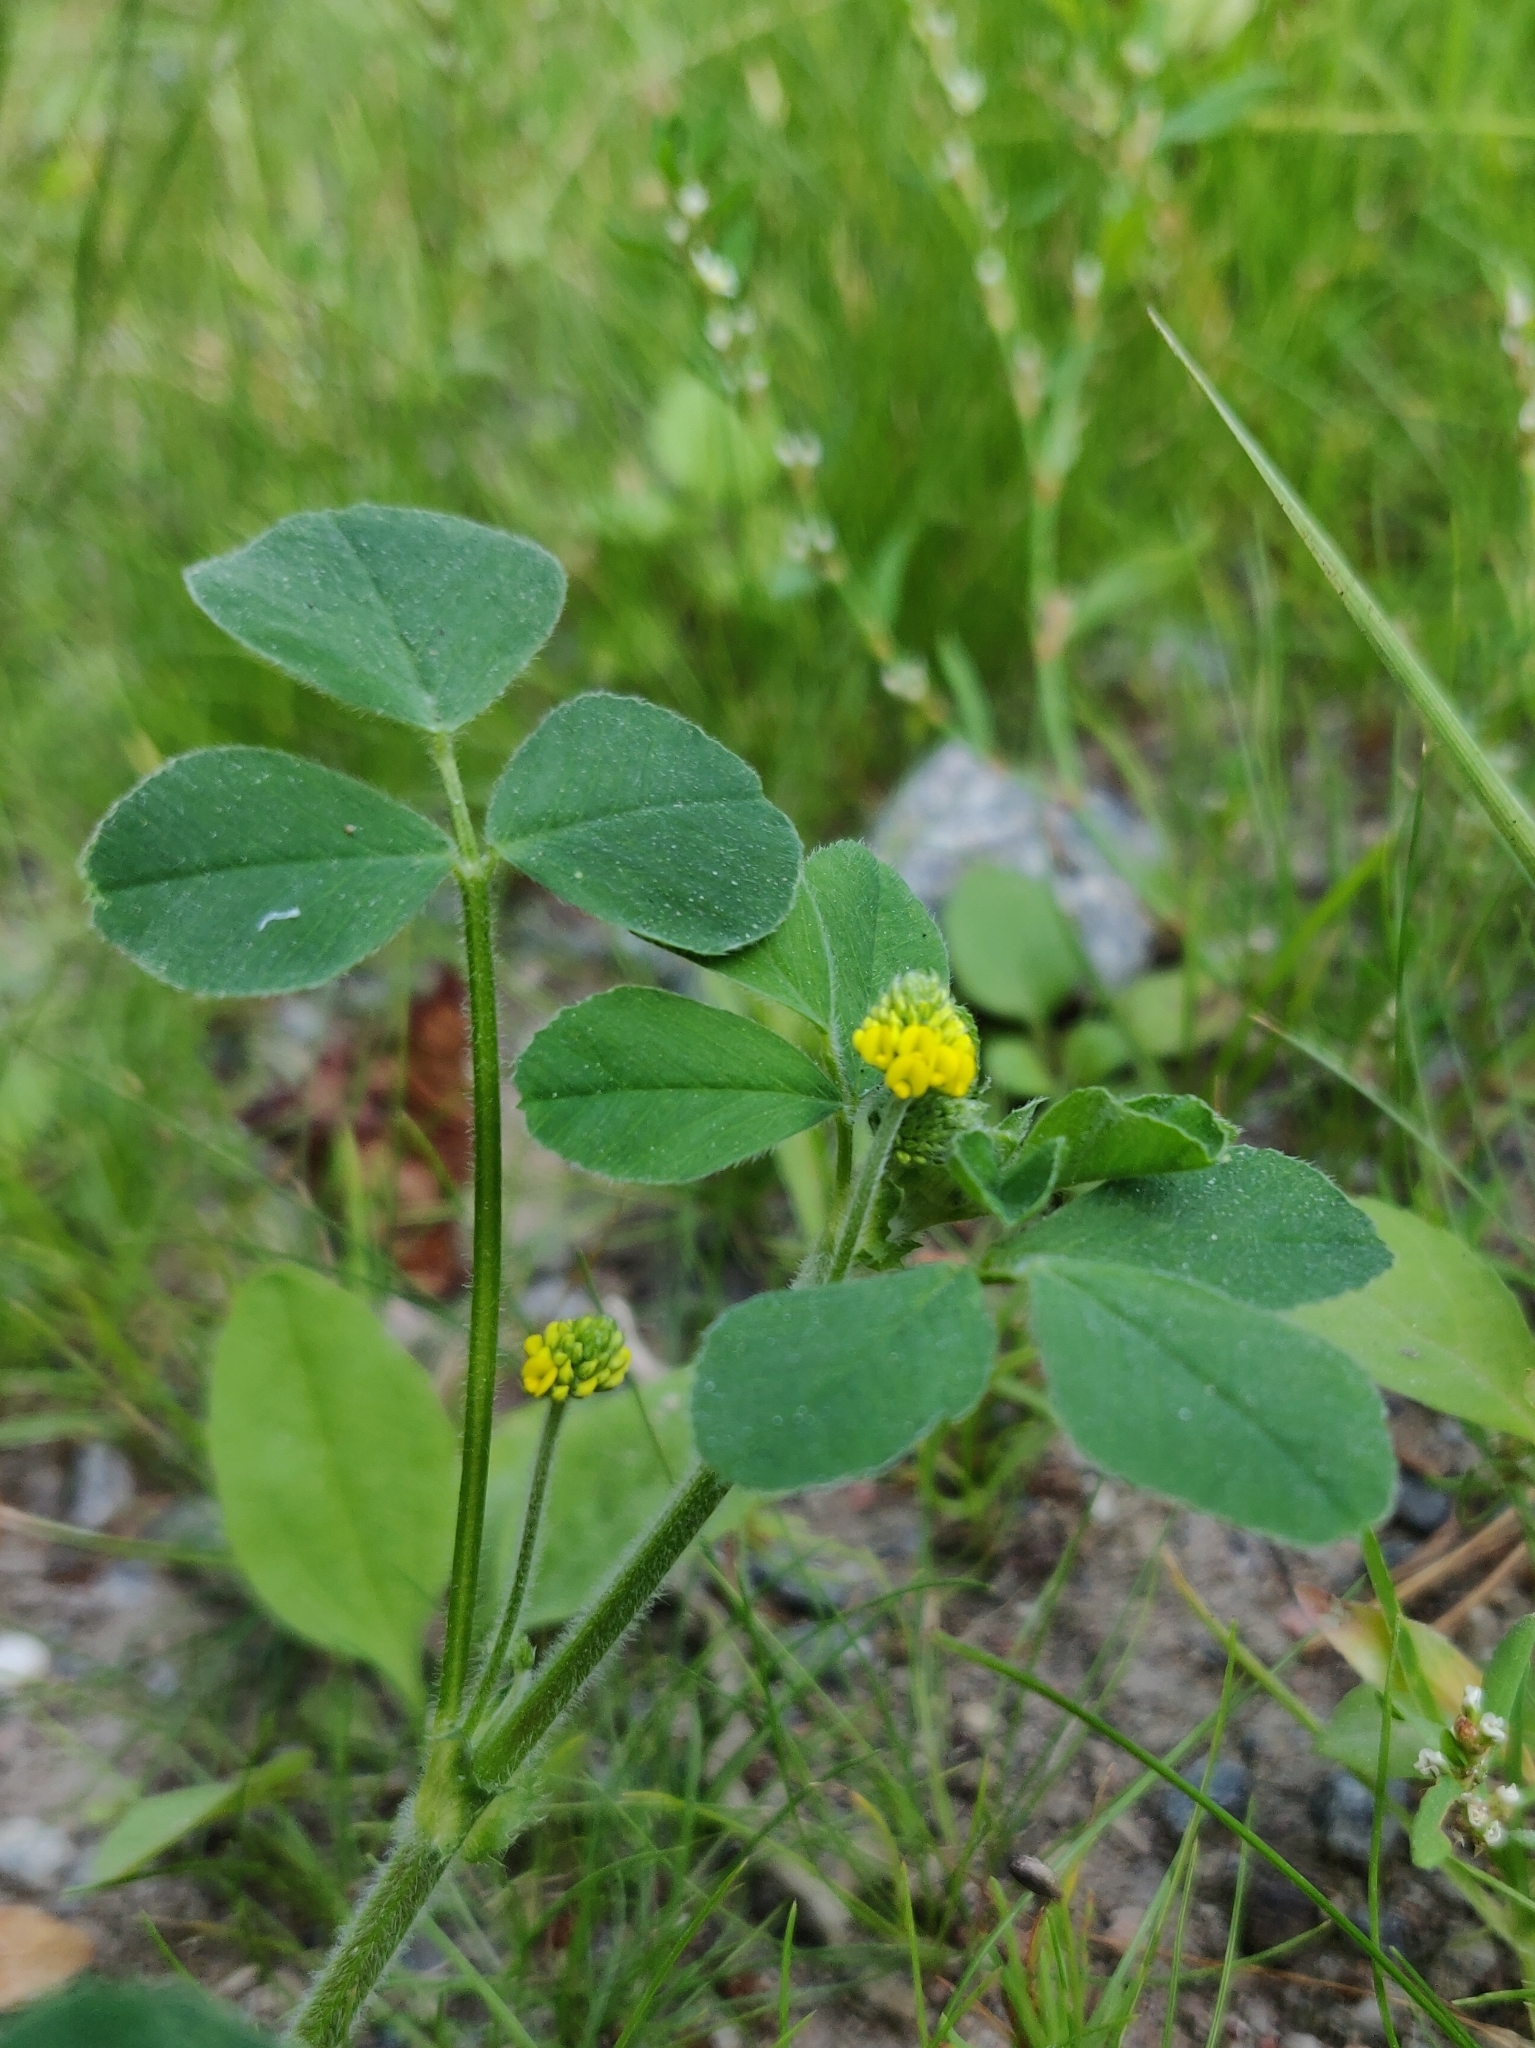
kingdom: Plantae
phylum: Tracheophyta
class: Magnoliopsida
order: Fabales
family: Fabaceae
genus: Medicago
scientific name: Medicago lupulina
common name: Black medick
